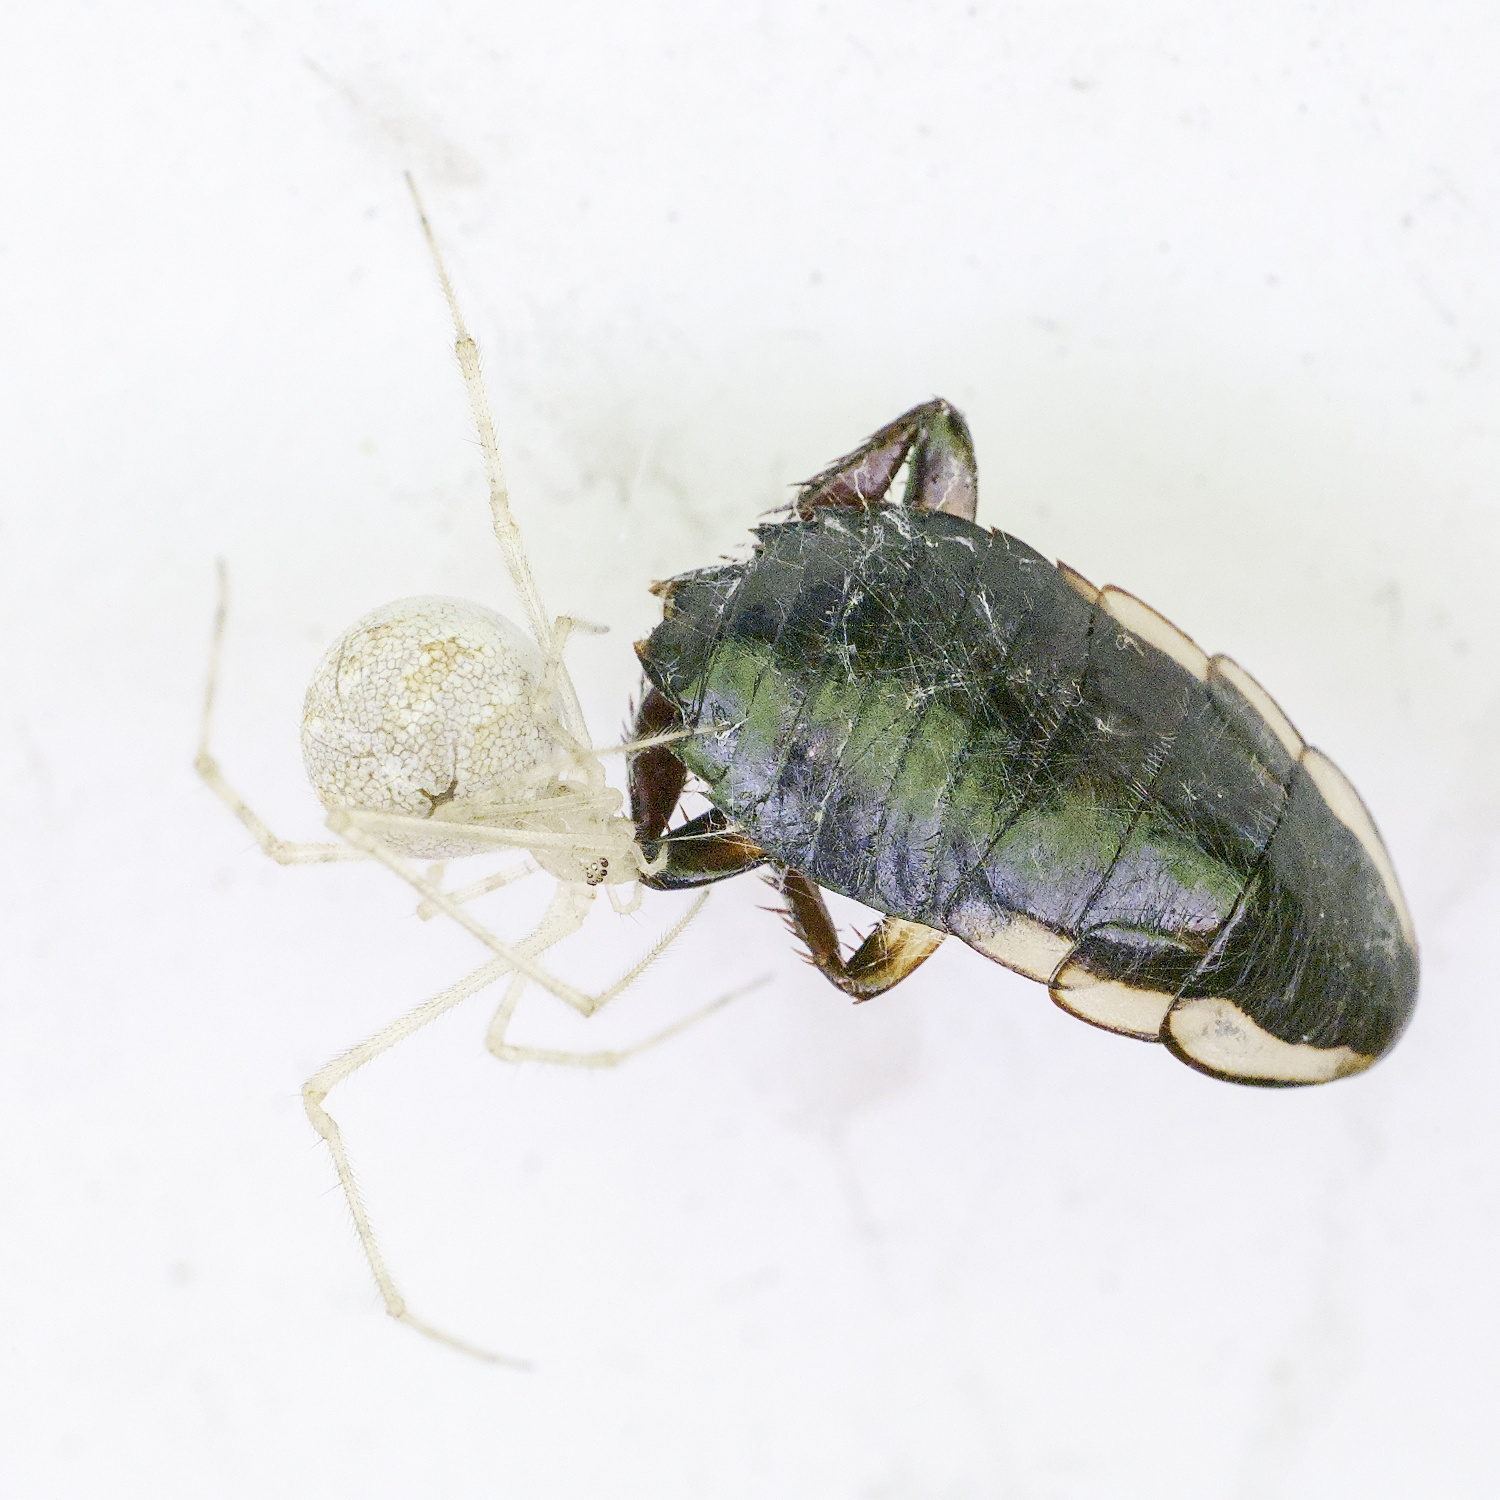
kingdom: Animalia
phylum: Arthropoda
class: Arachnida
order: Araneae
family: Theridiidae
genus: Cryptachaea
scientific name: Cryptachaea gigantipes
